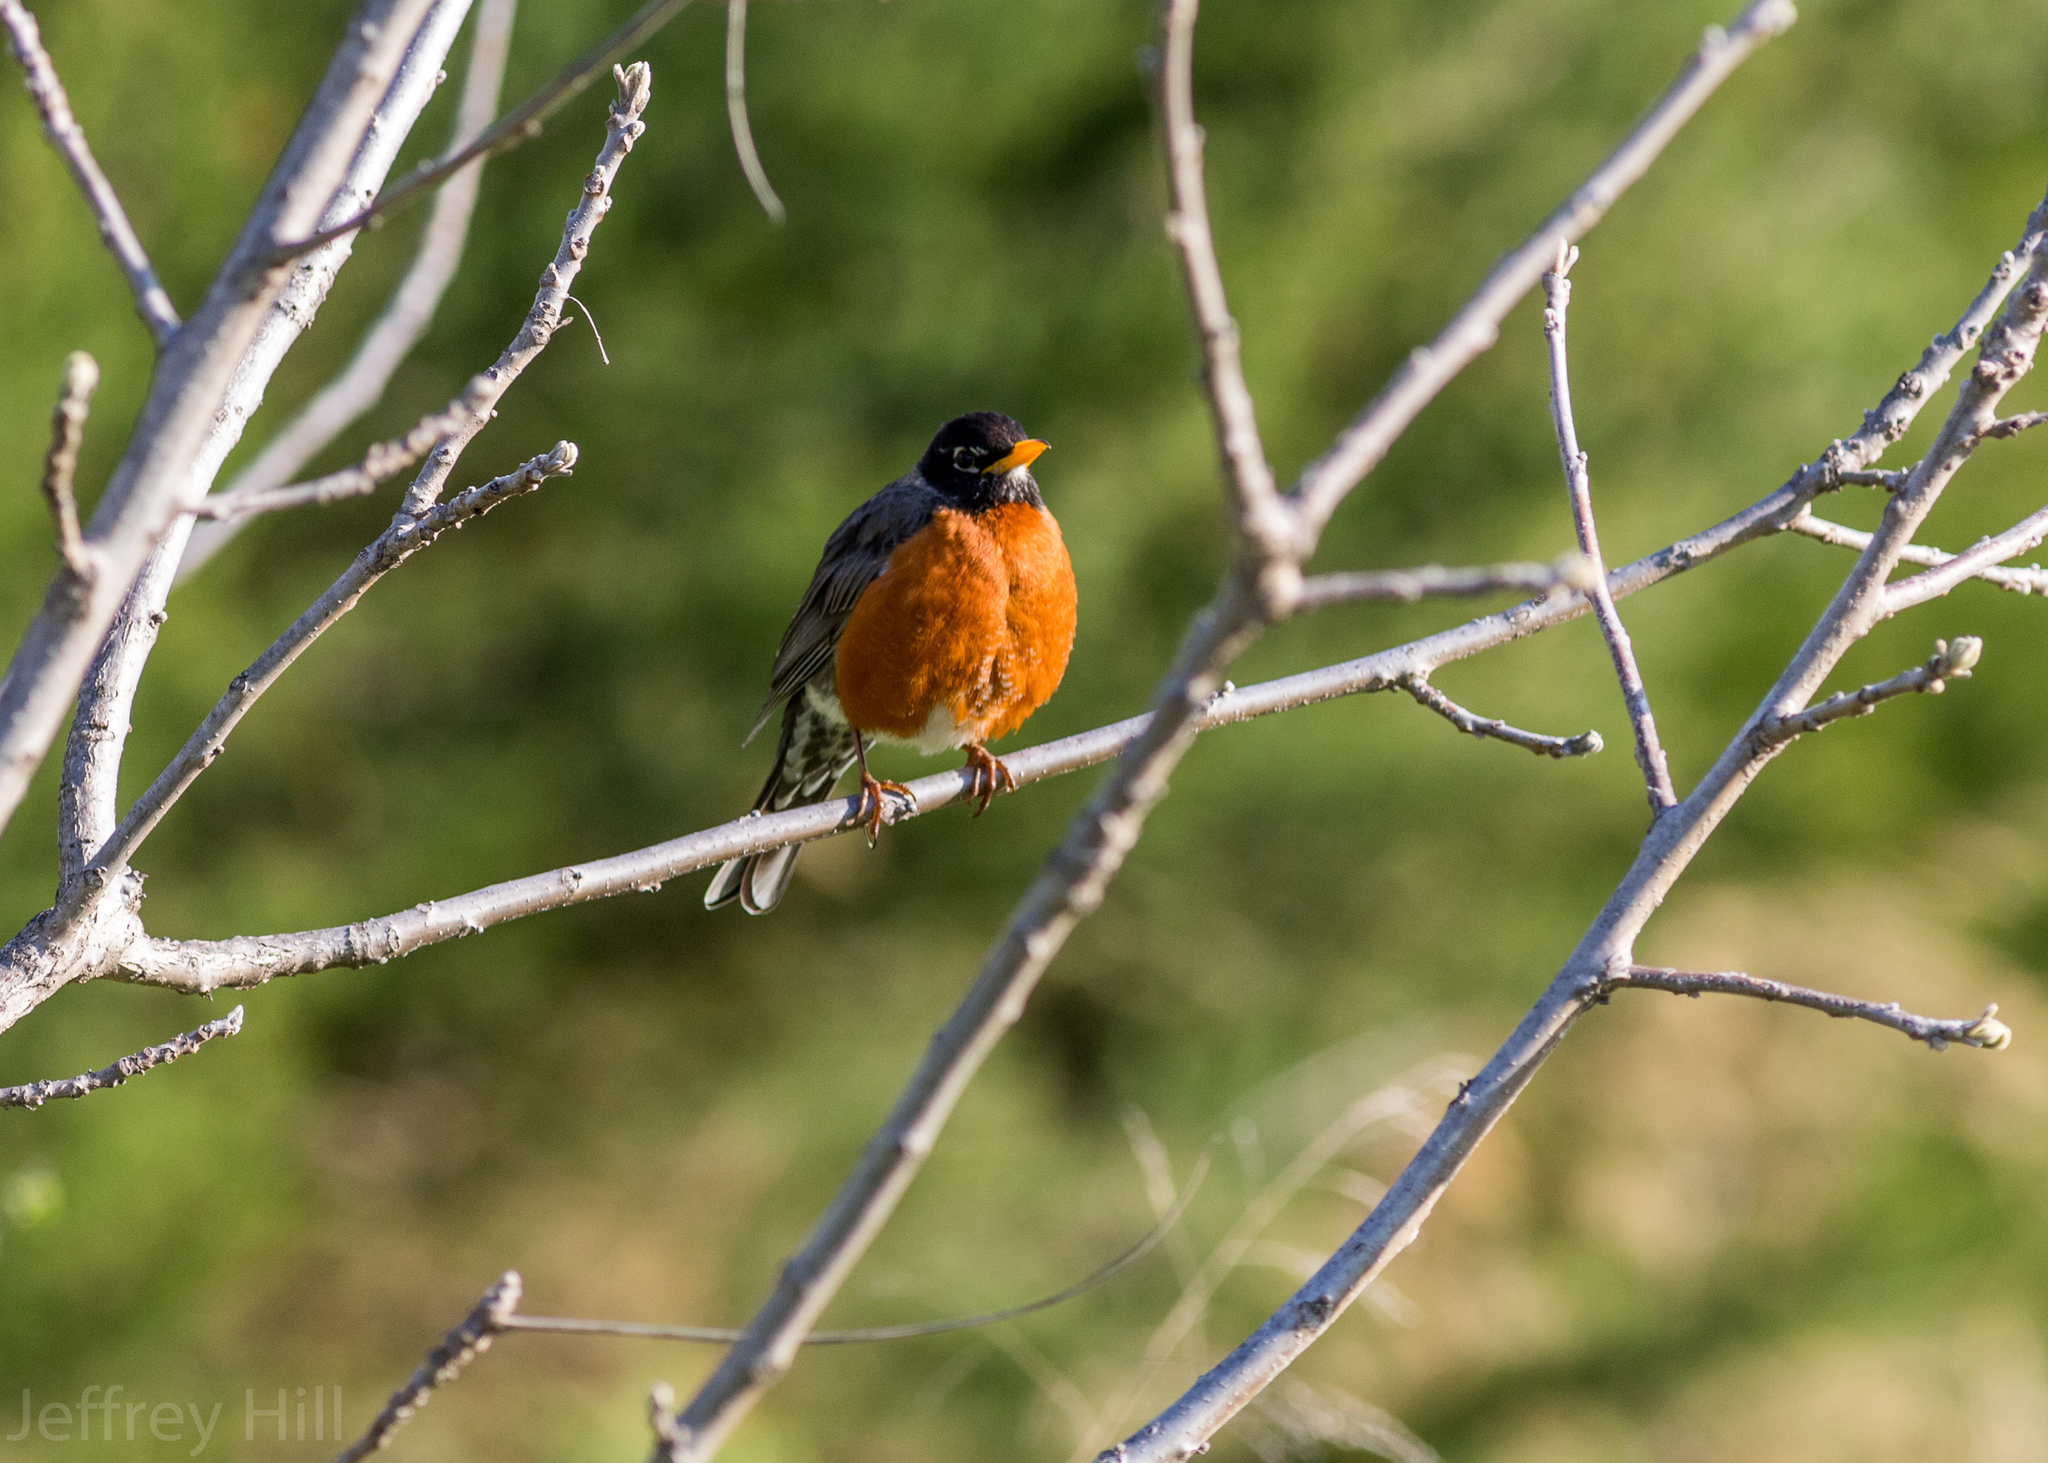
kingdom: Animalia
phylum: Chordata
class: Aves
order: Passeriformes
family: Turdidae
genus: Turdus
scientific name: Turdus migratorius
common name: American robin
